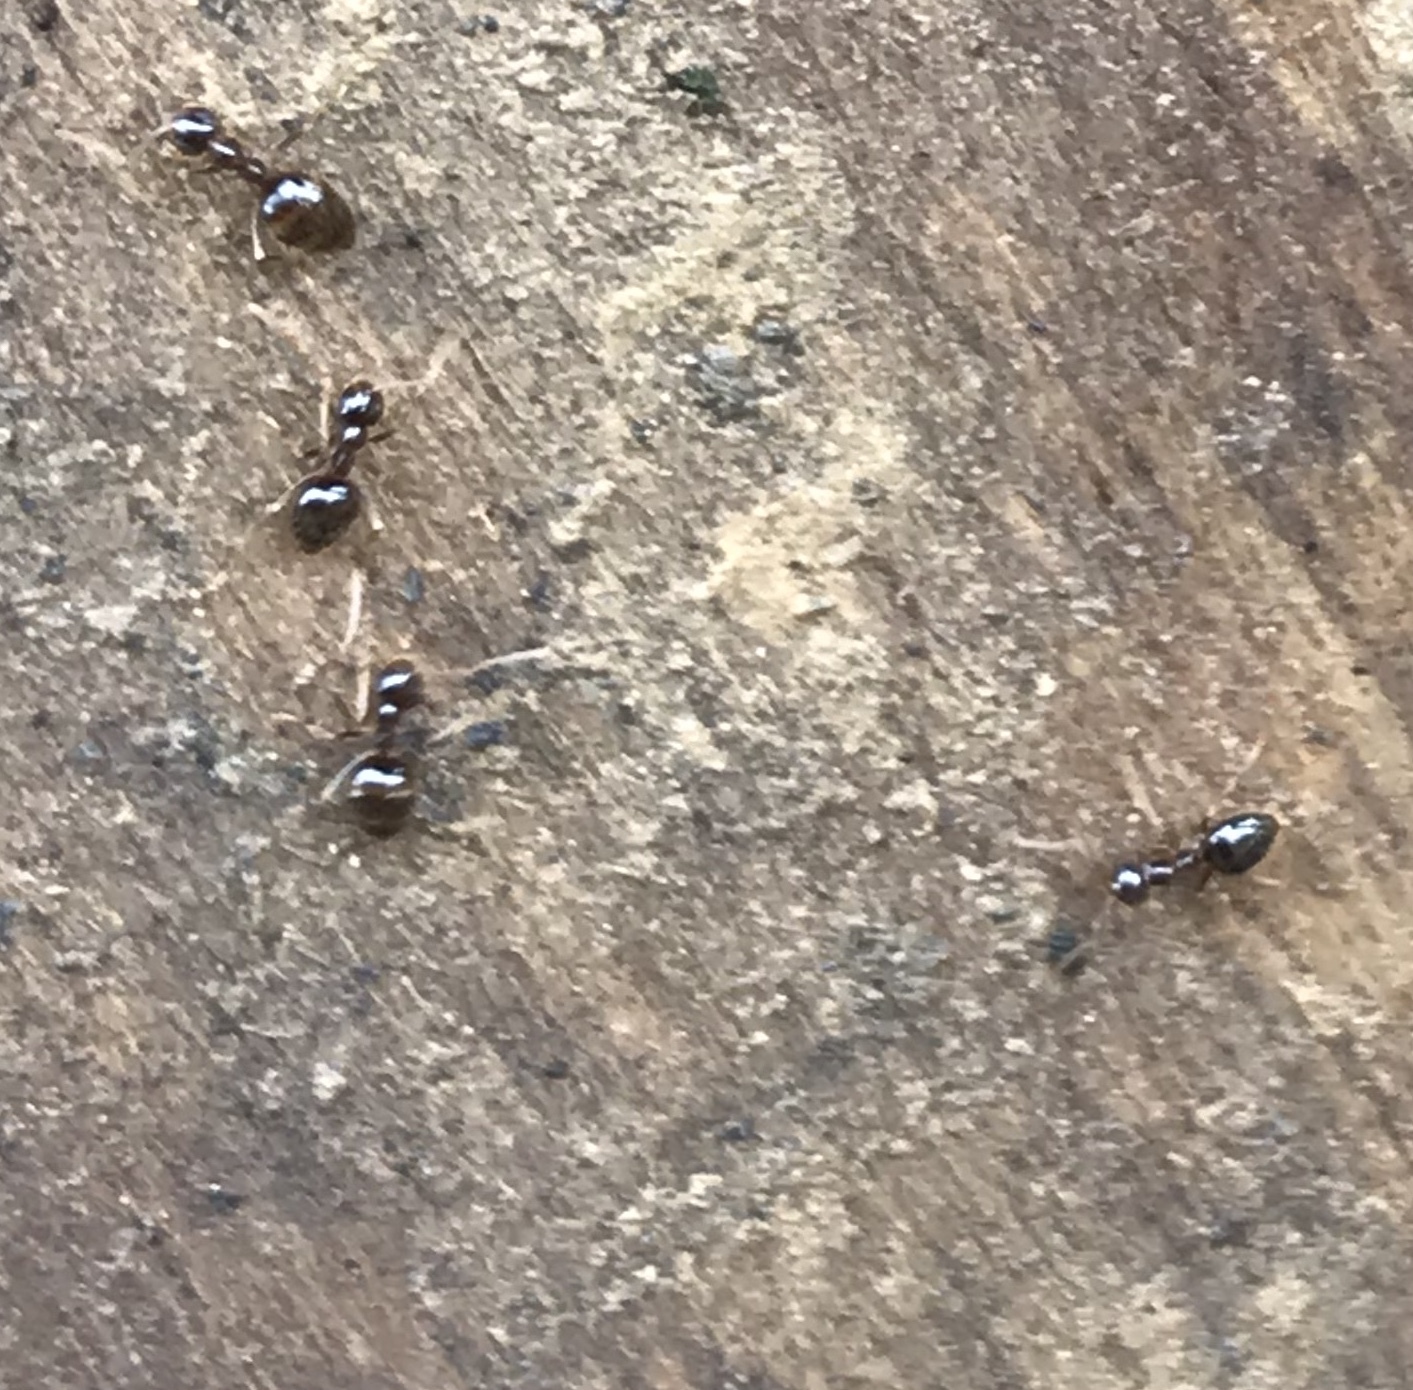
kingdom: Animalia
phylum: Arthropoda
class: Insecta
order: Hymenoptera
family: Formicidae
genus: Prenolepis
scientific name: Prenolepis imparis
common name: Small honey ant
